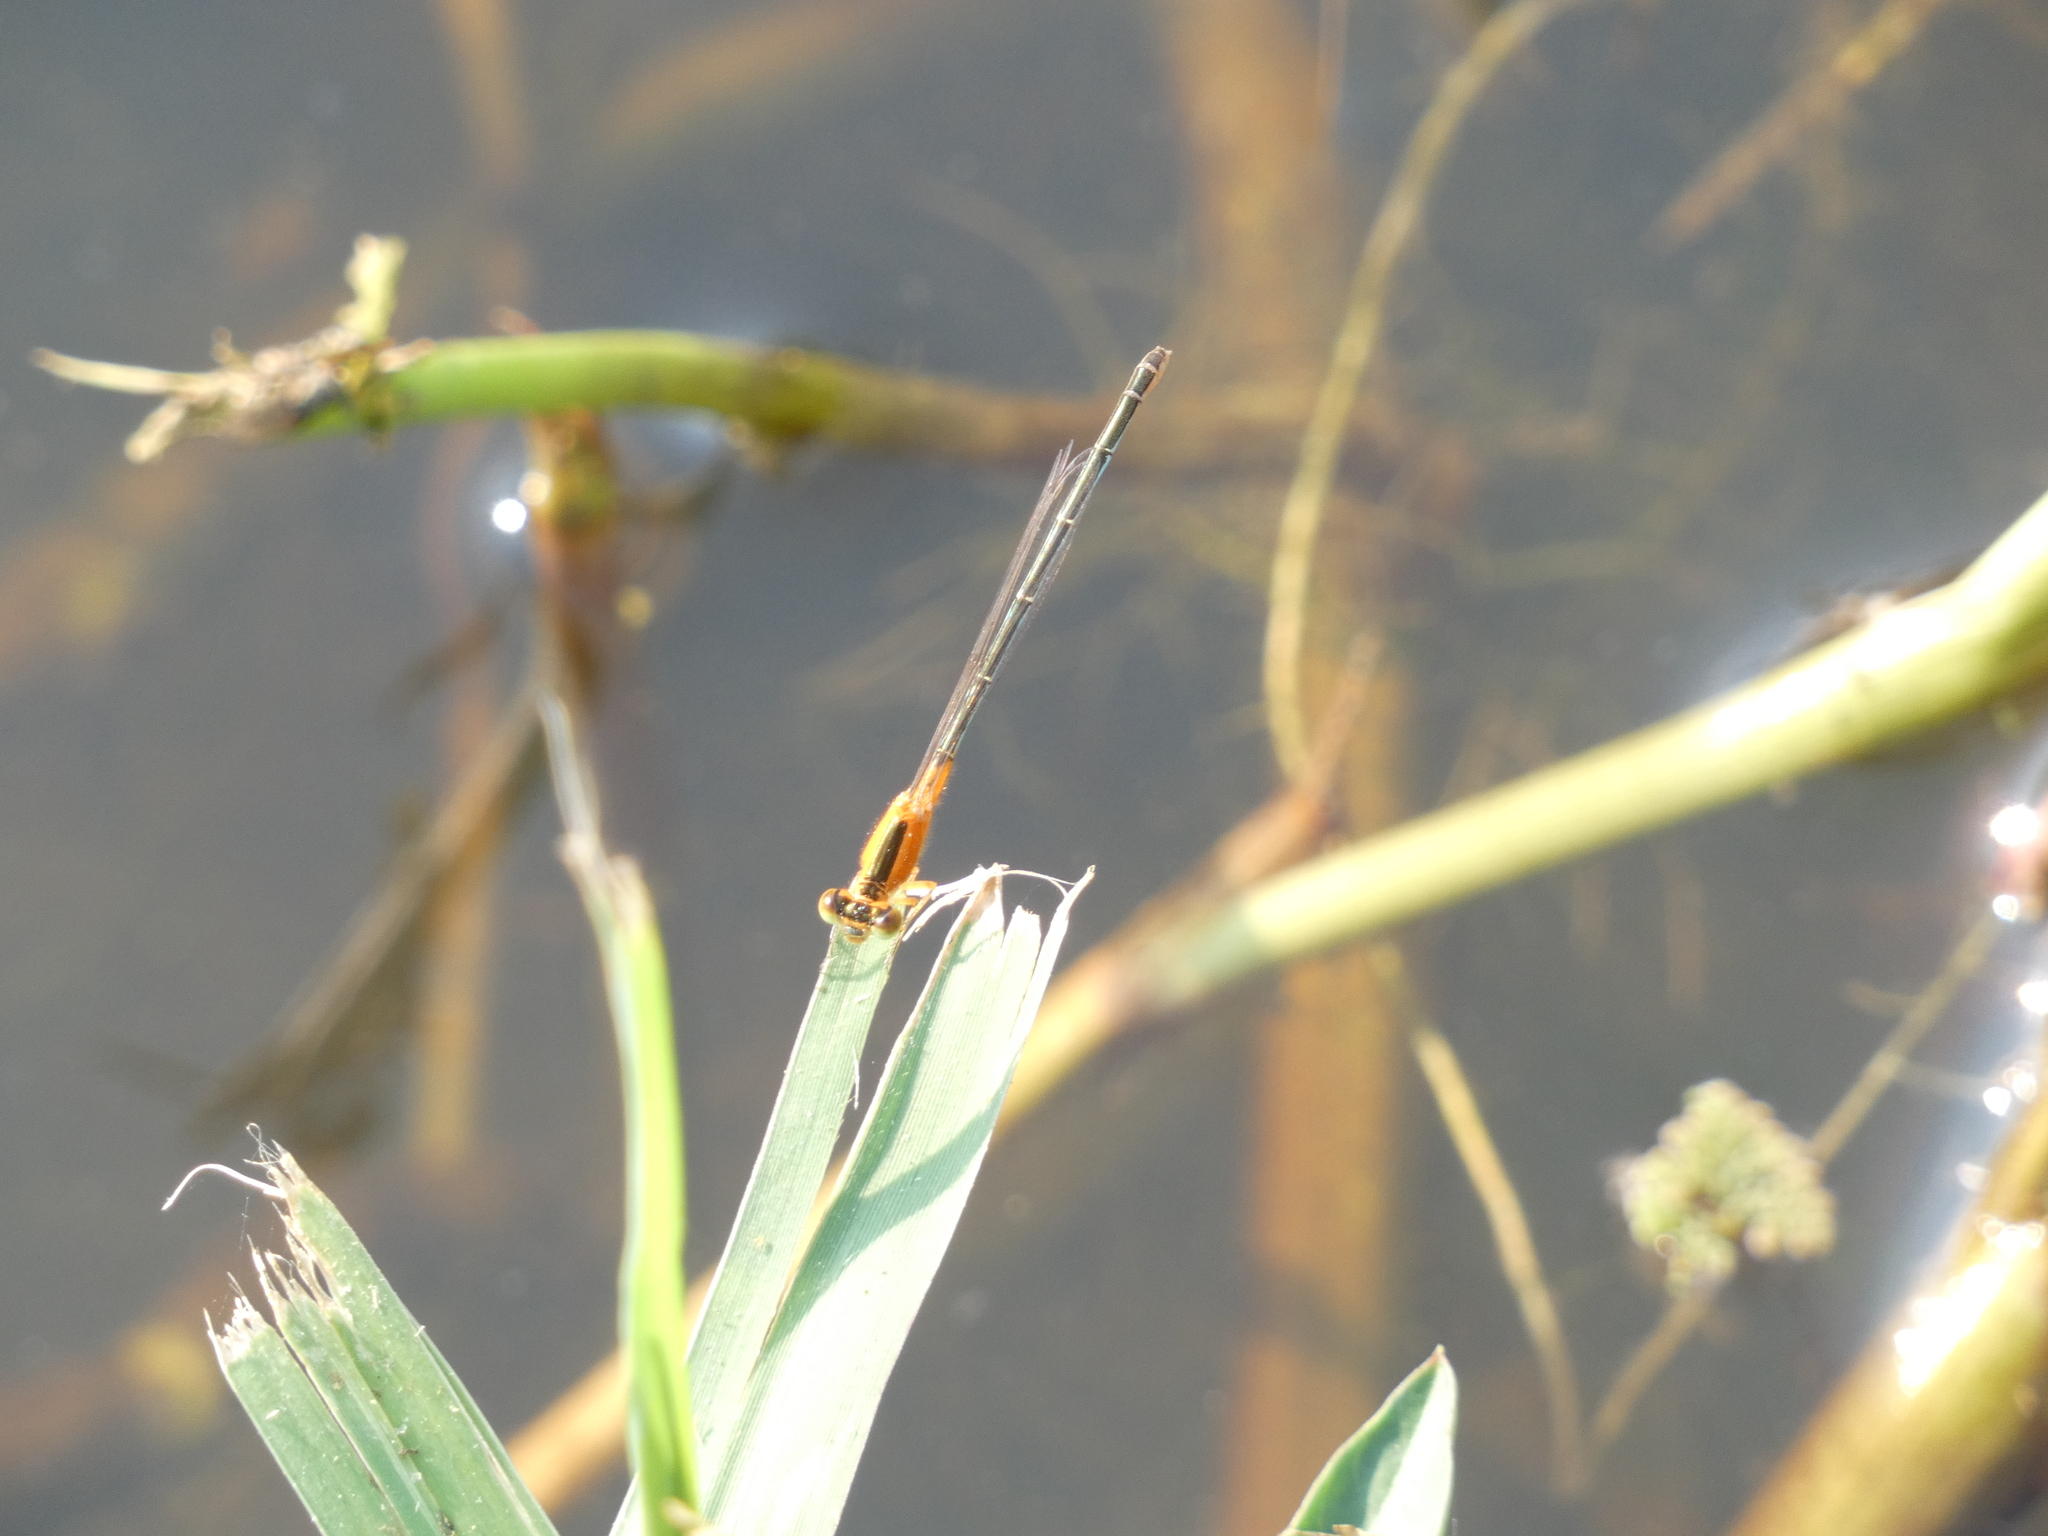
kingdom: Animalia
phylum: Arthropoda
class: Insecta
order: Odonata
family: Coenagrionidae
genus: Ischnura
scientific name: Ischnura senegalensis
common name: Tropical bluetail
